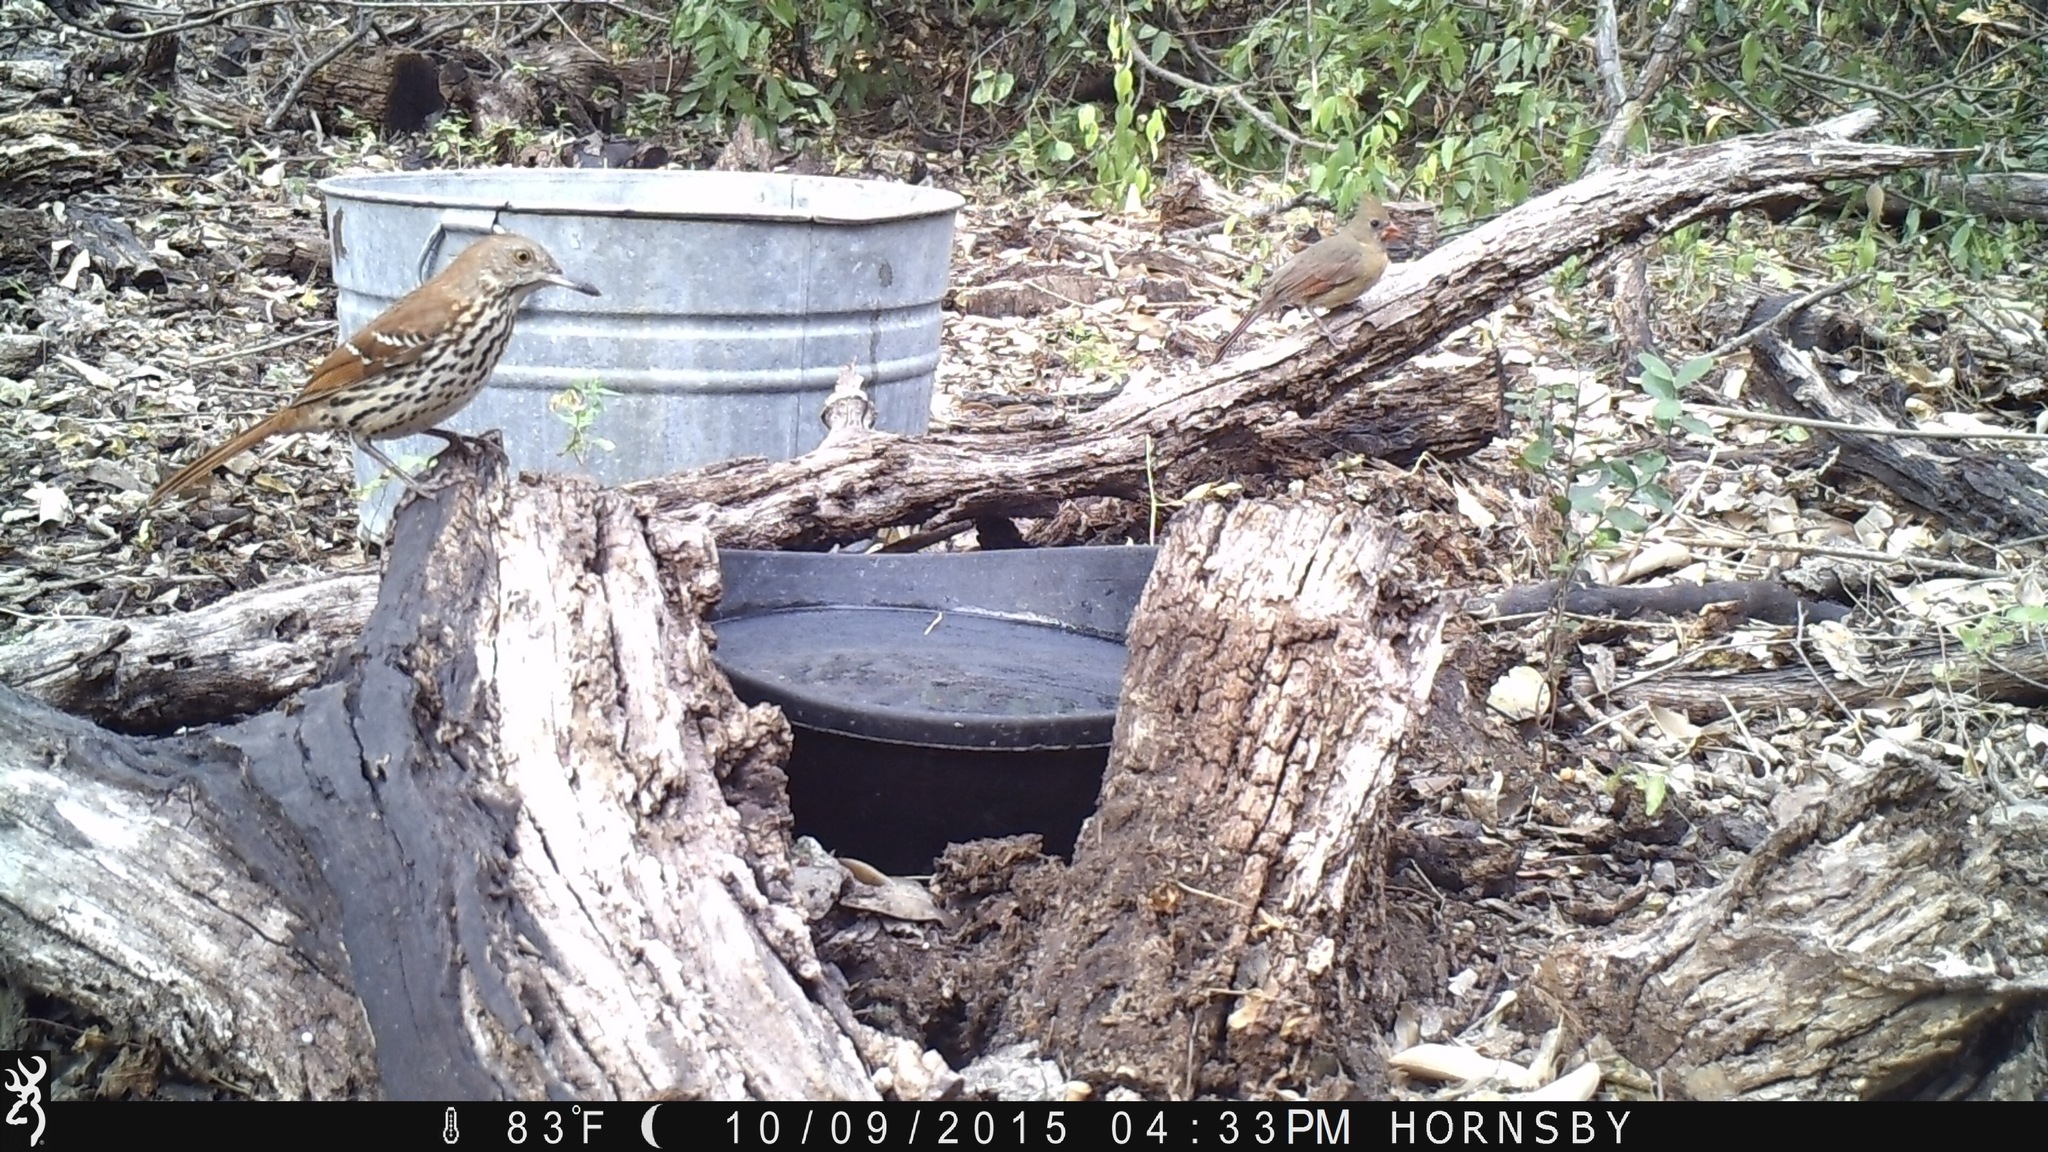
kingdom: Animalia
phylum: Chordata
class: Aves
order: Passeriformes
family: Mimidae
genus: Toxostoma
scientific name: Toxostoma rufum
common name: Brown thrasher
